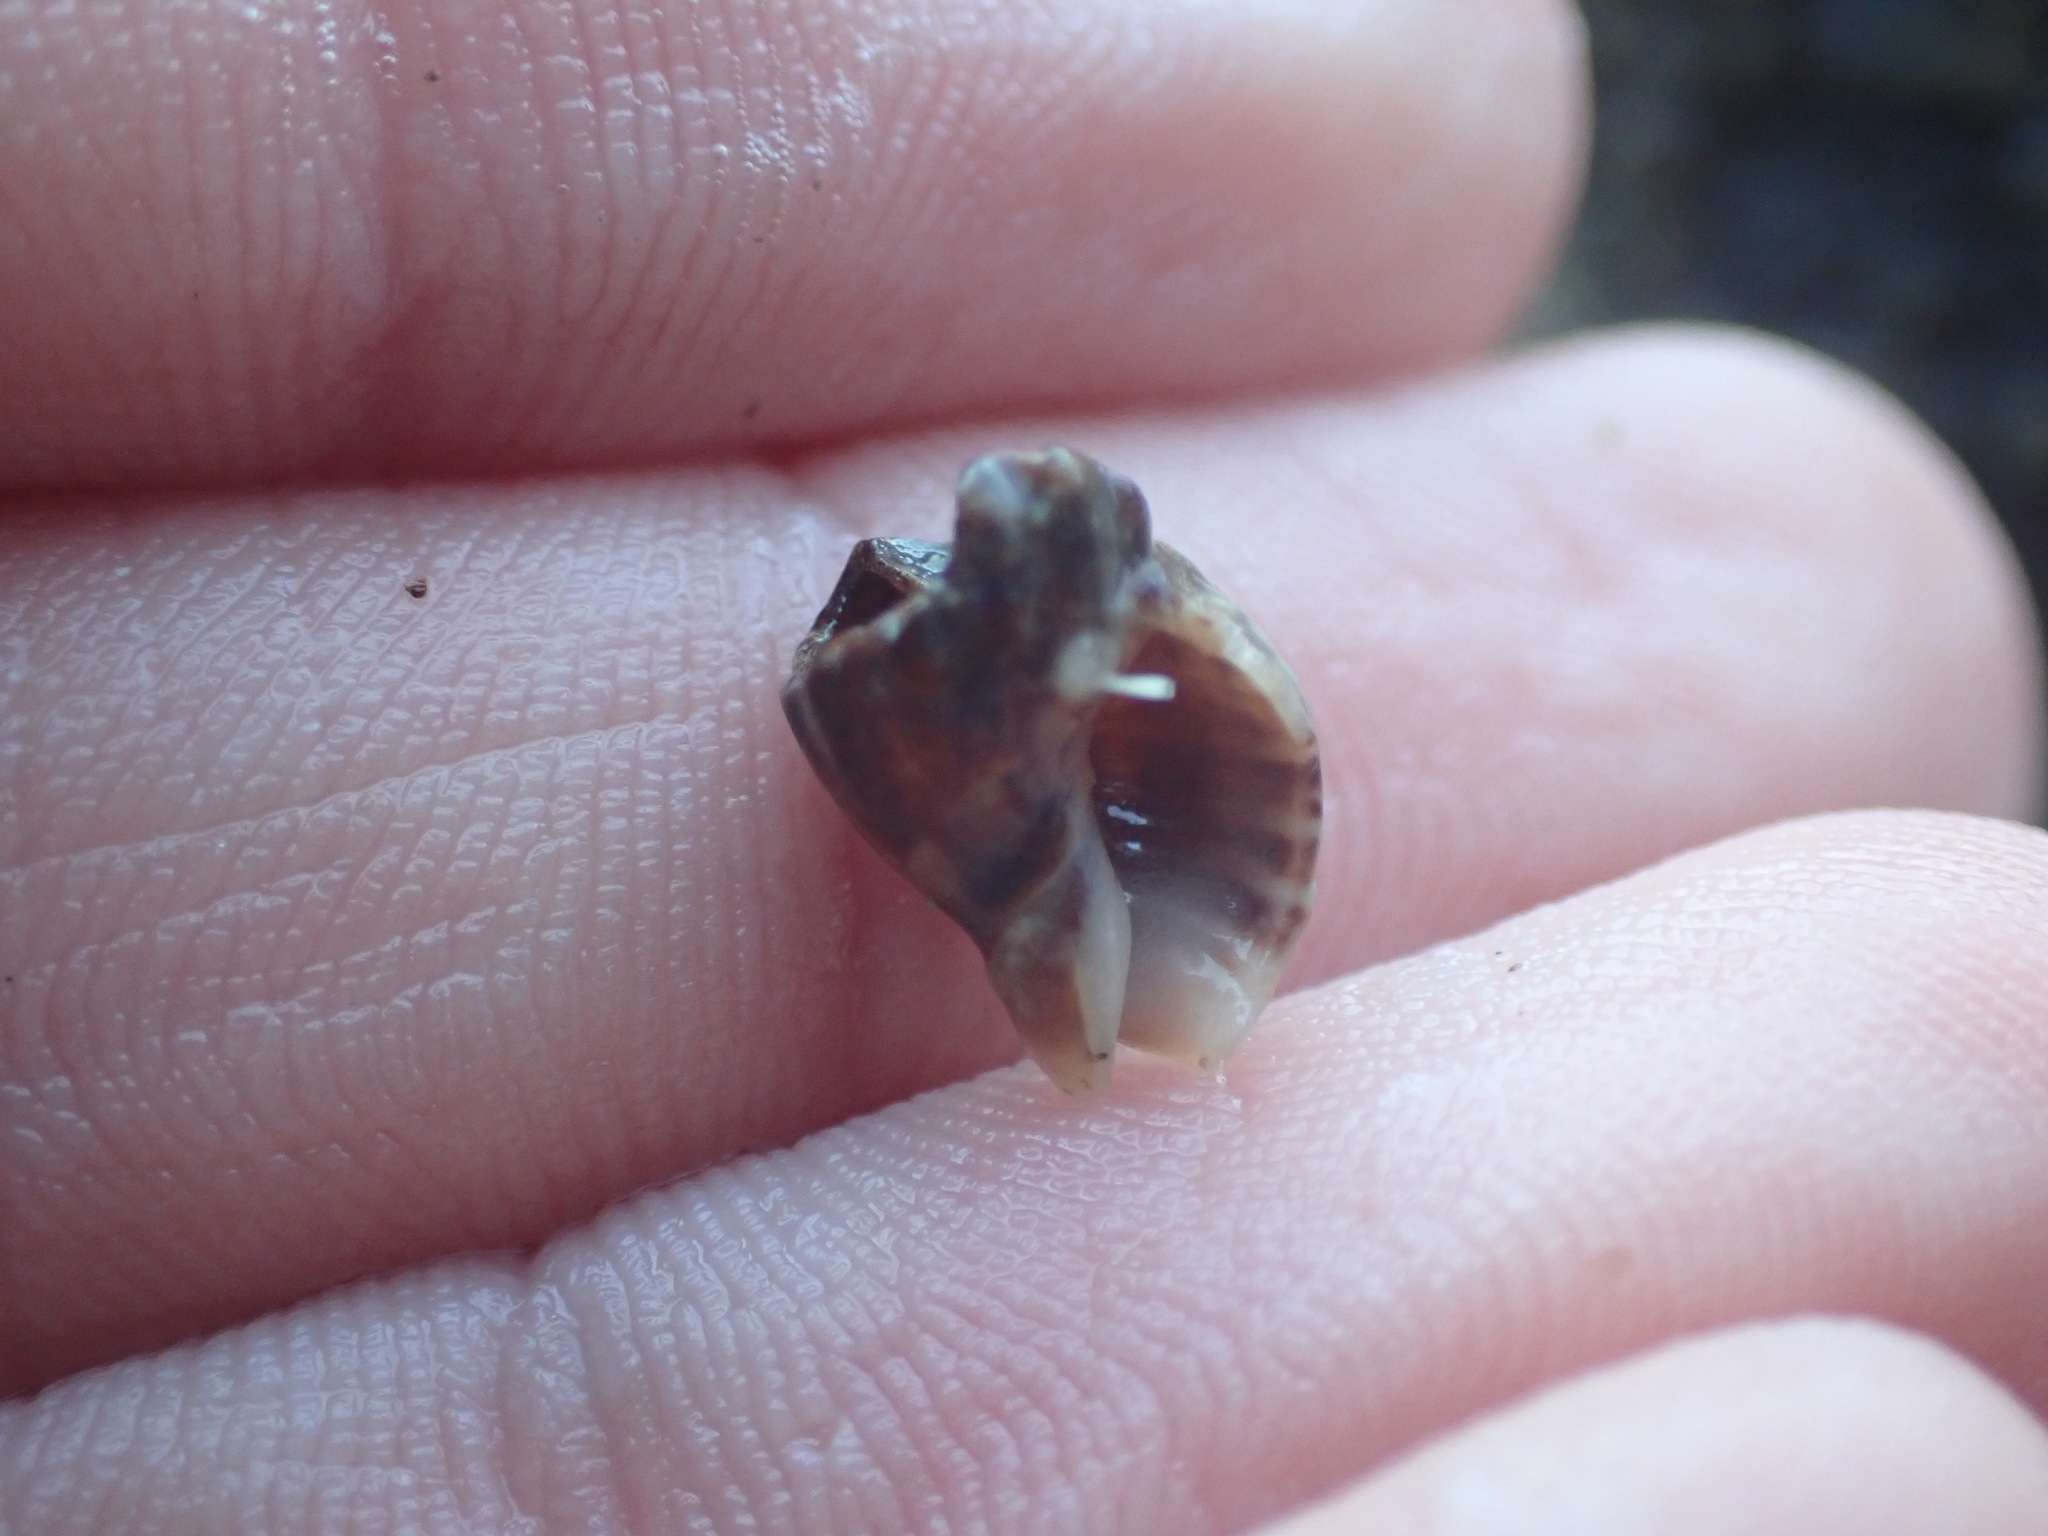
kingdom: Animalia
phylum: Mollusca
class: Gastropoda
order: Neogastropoda
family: Cominellidae
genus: Cominella
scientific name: Cominella accuminata
